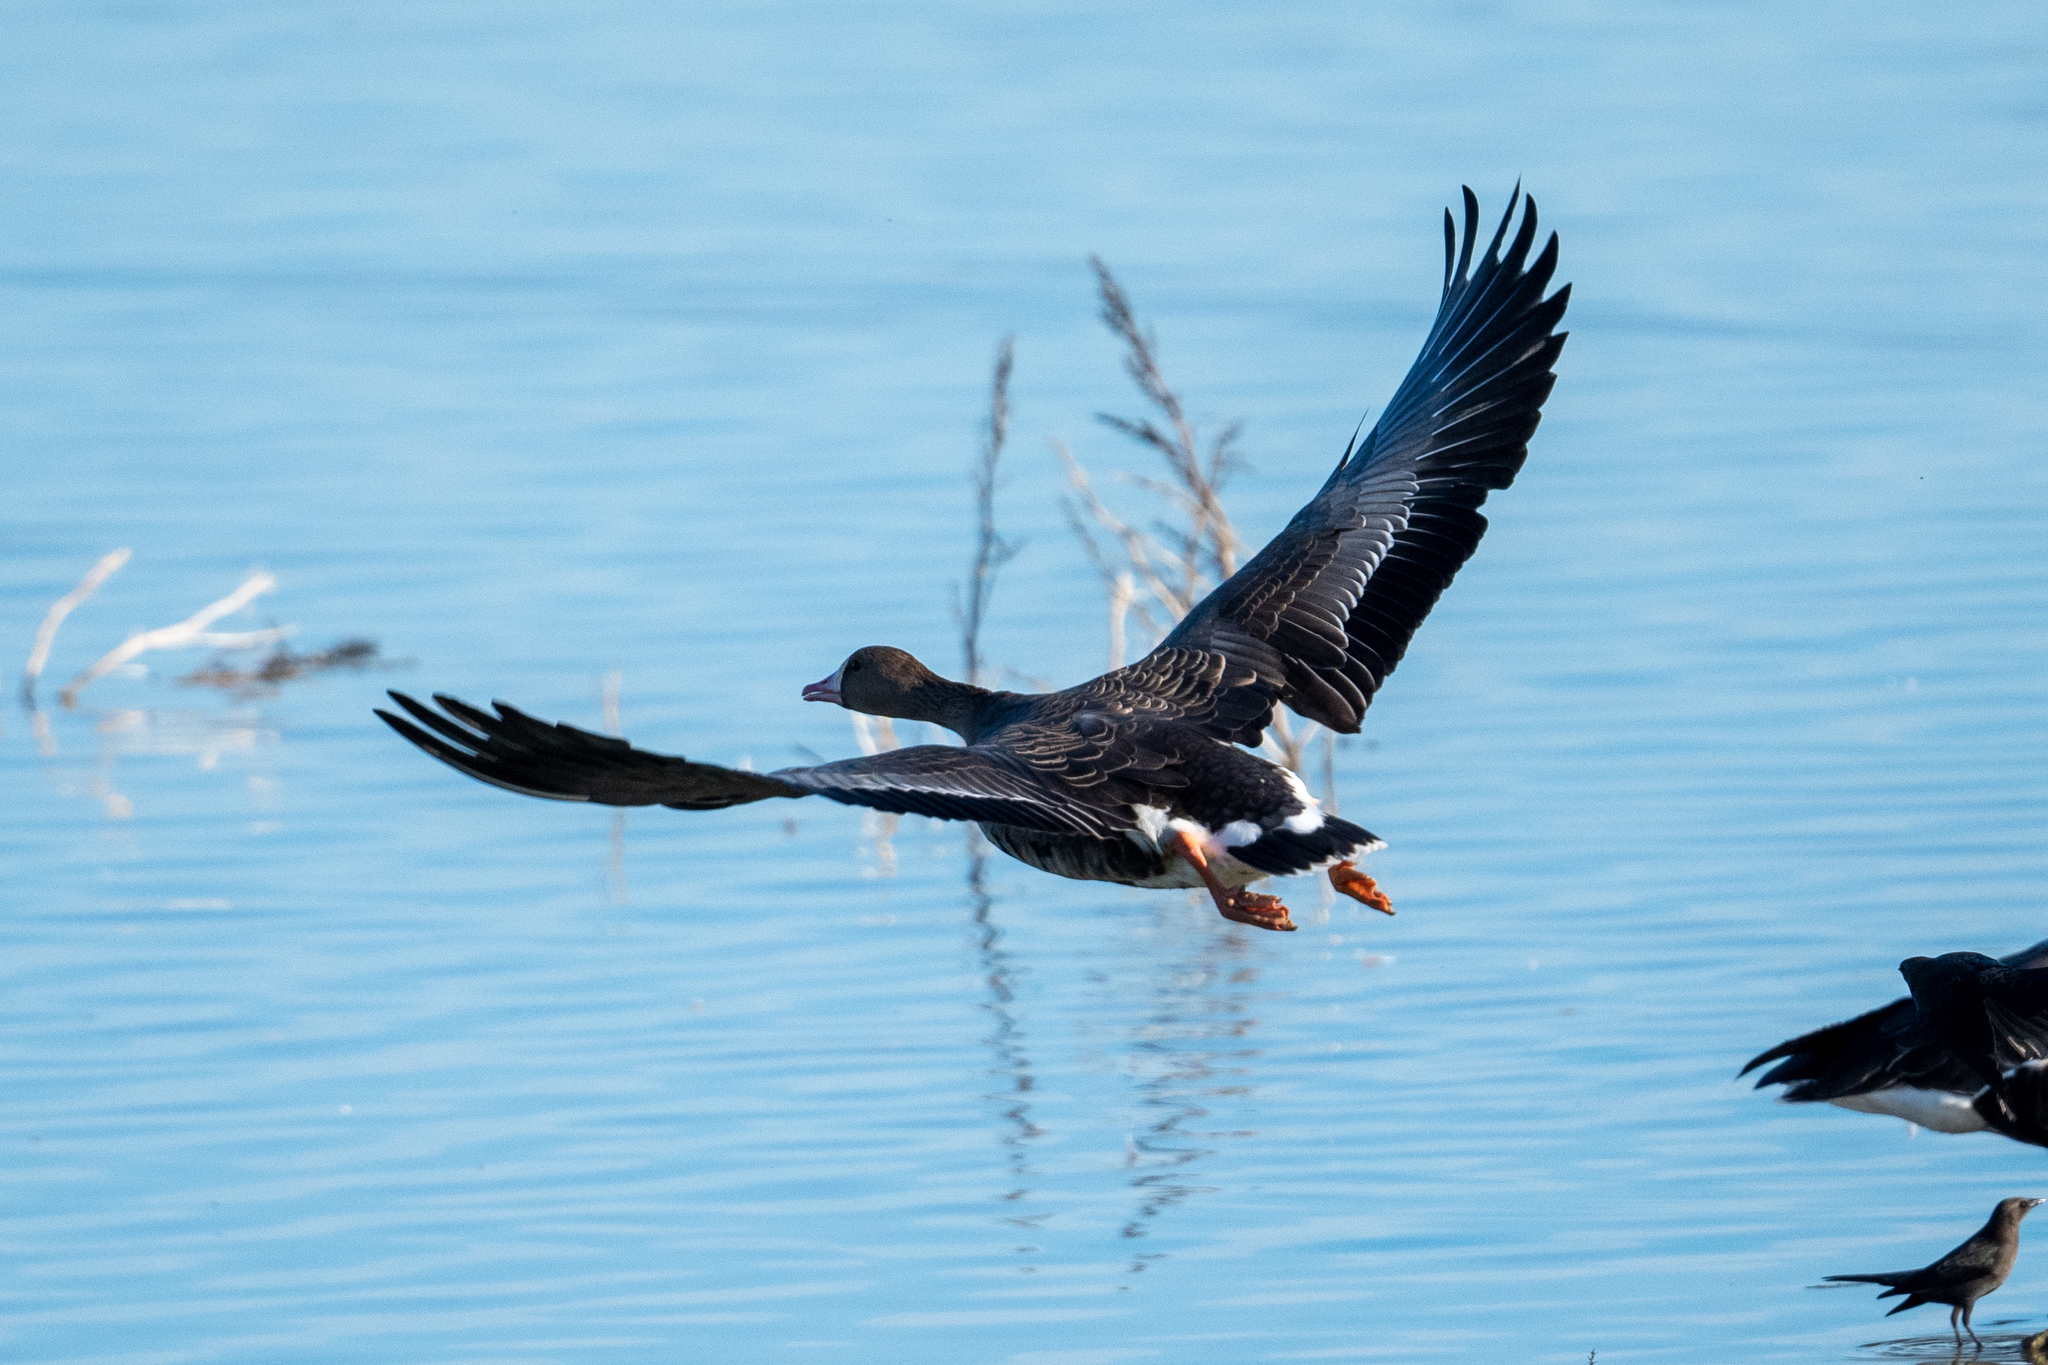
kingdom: Animalia
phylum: Chordata
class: Aves
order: Anseriformes
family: Anatidae
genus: Anser
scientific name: Anser albifrons
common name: Greater white-fronted goose
